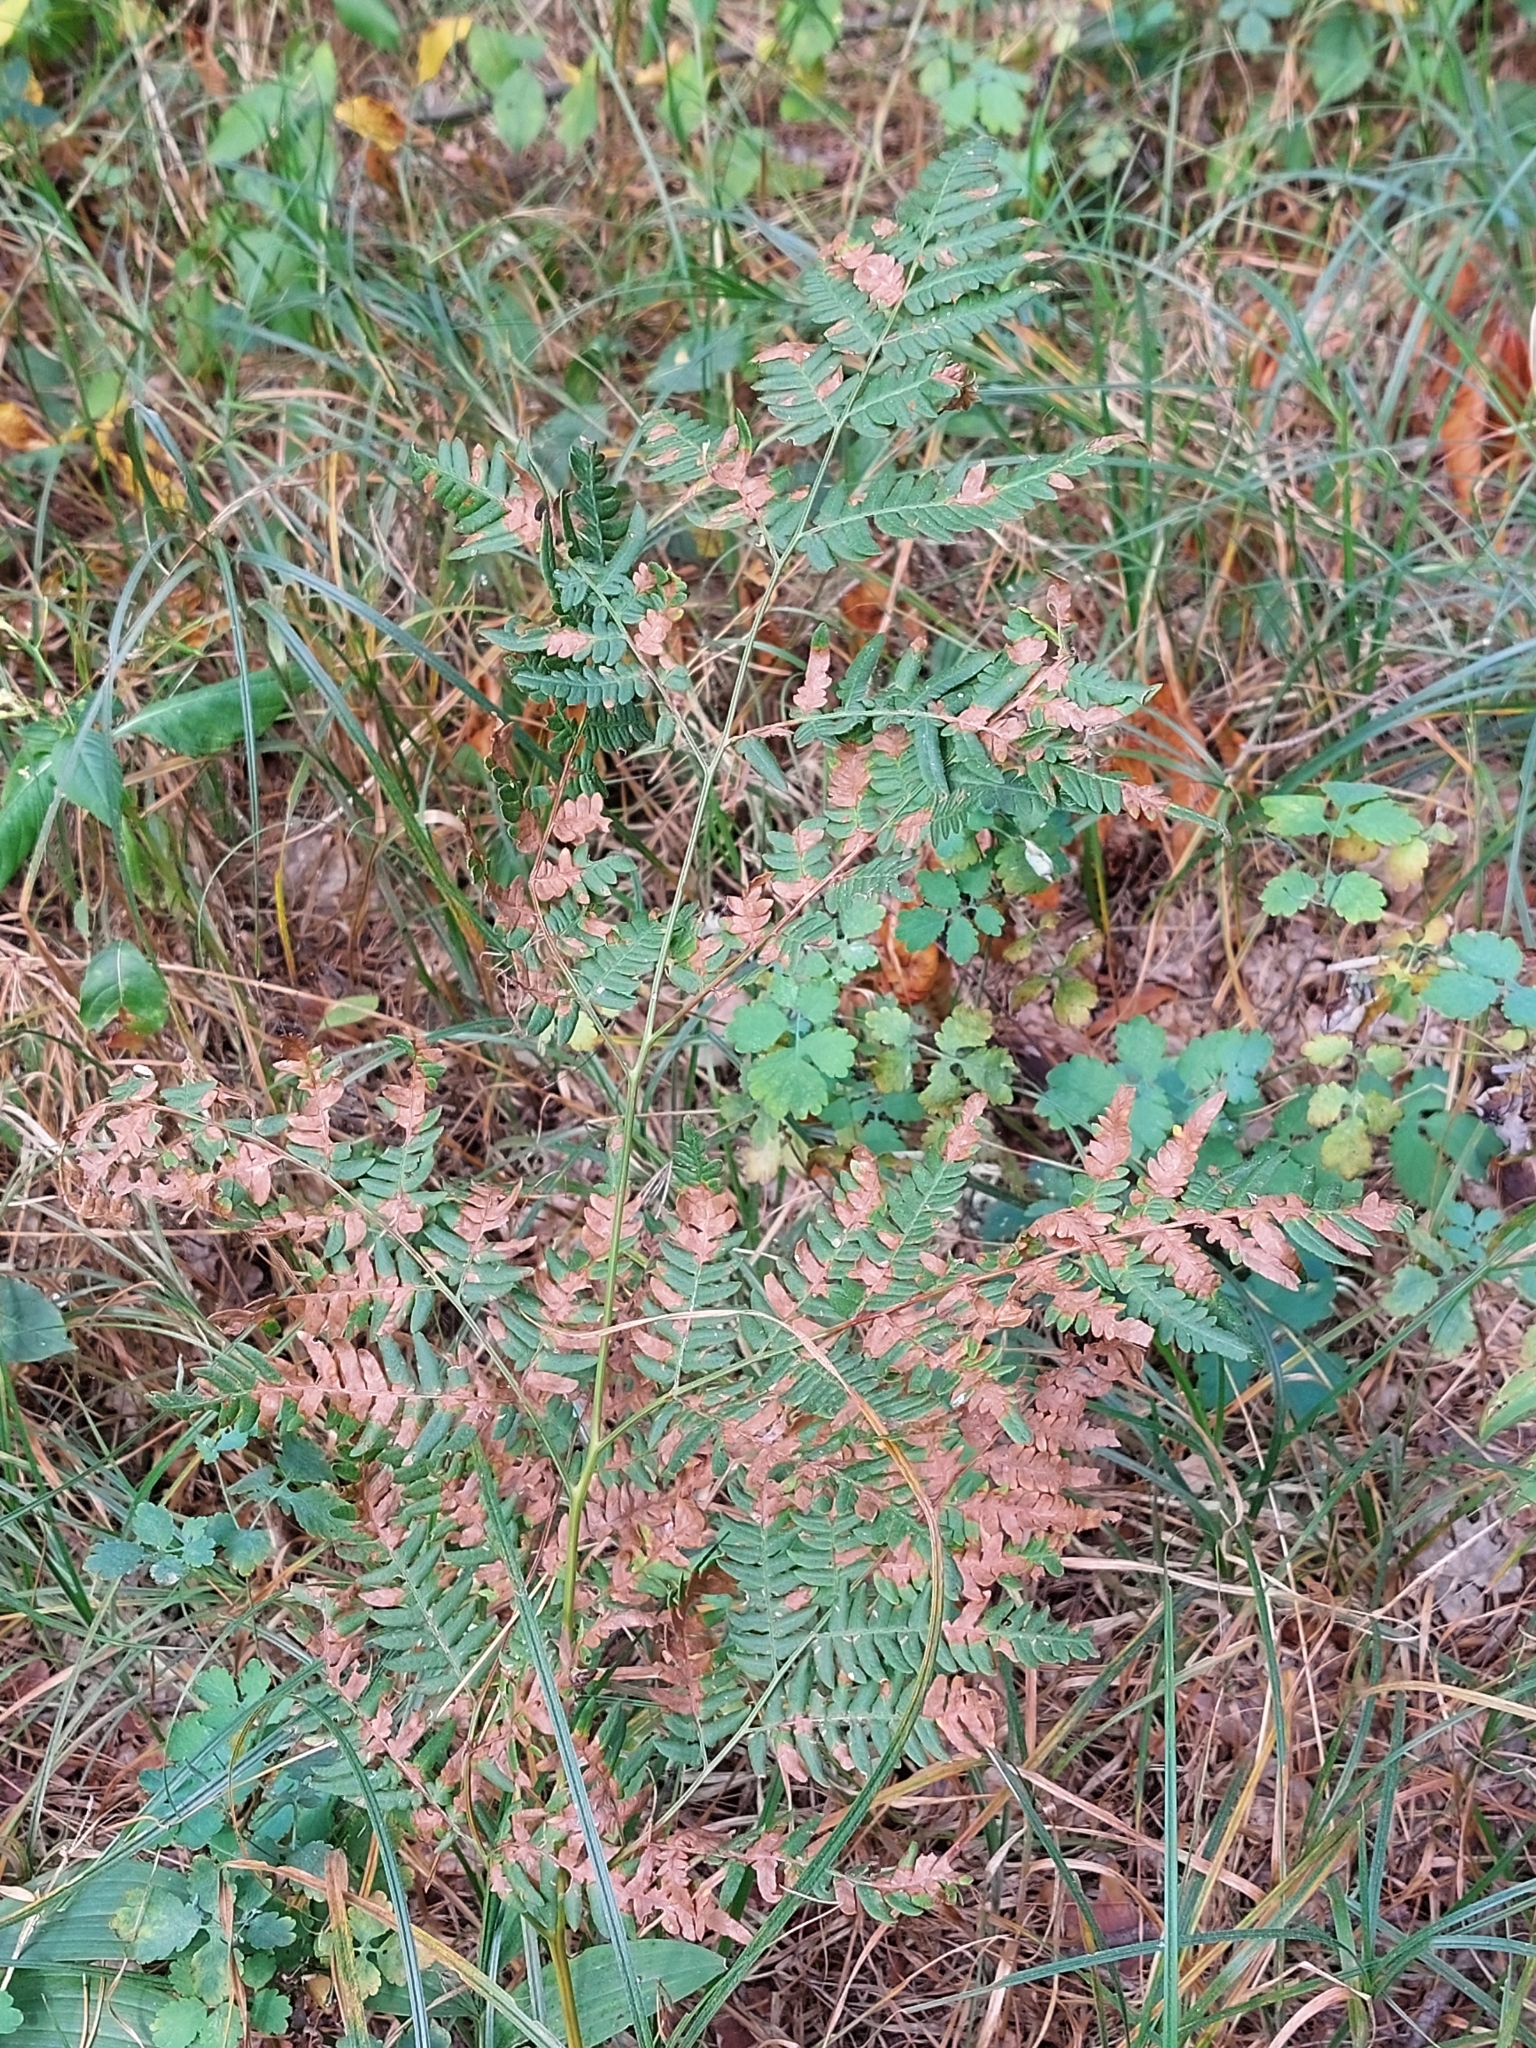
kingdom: Plantae
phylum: Tracheophyta
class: Polypodiopsida
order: Polypodiales
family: Dennstaedtiaceae
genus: Pteridium
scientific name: Pteridium aquilinum
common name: Bracken
